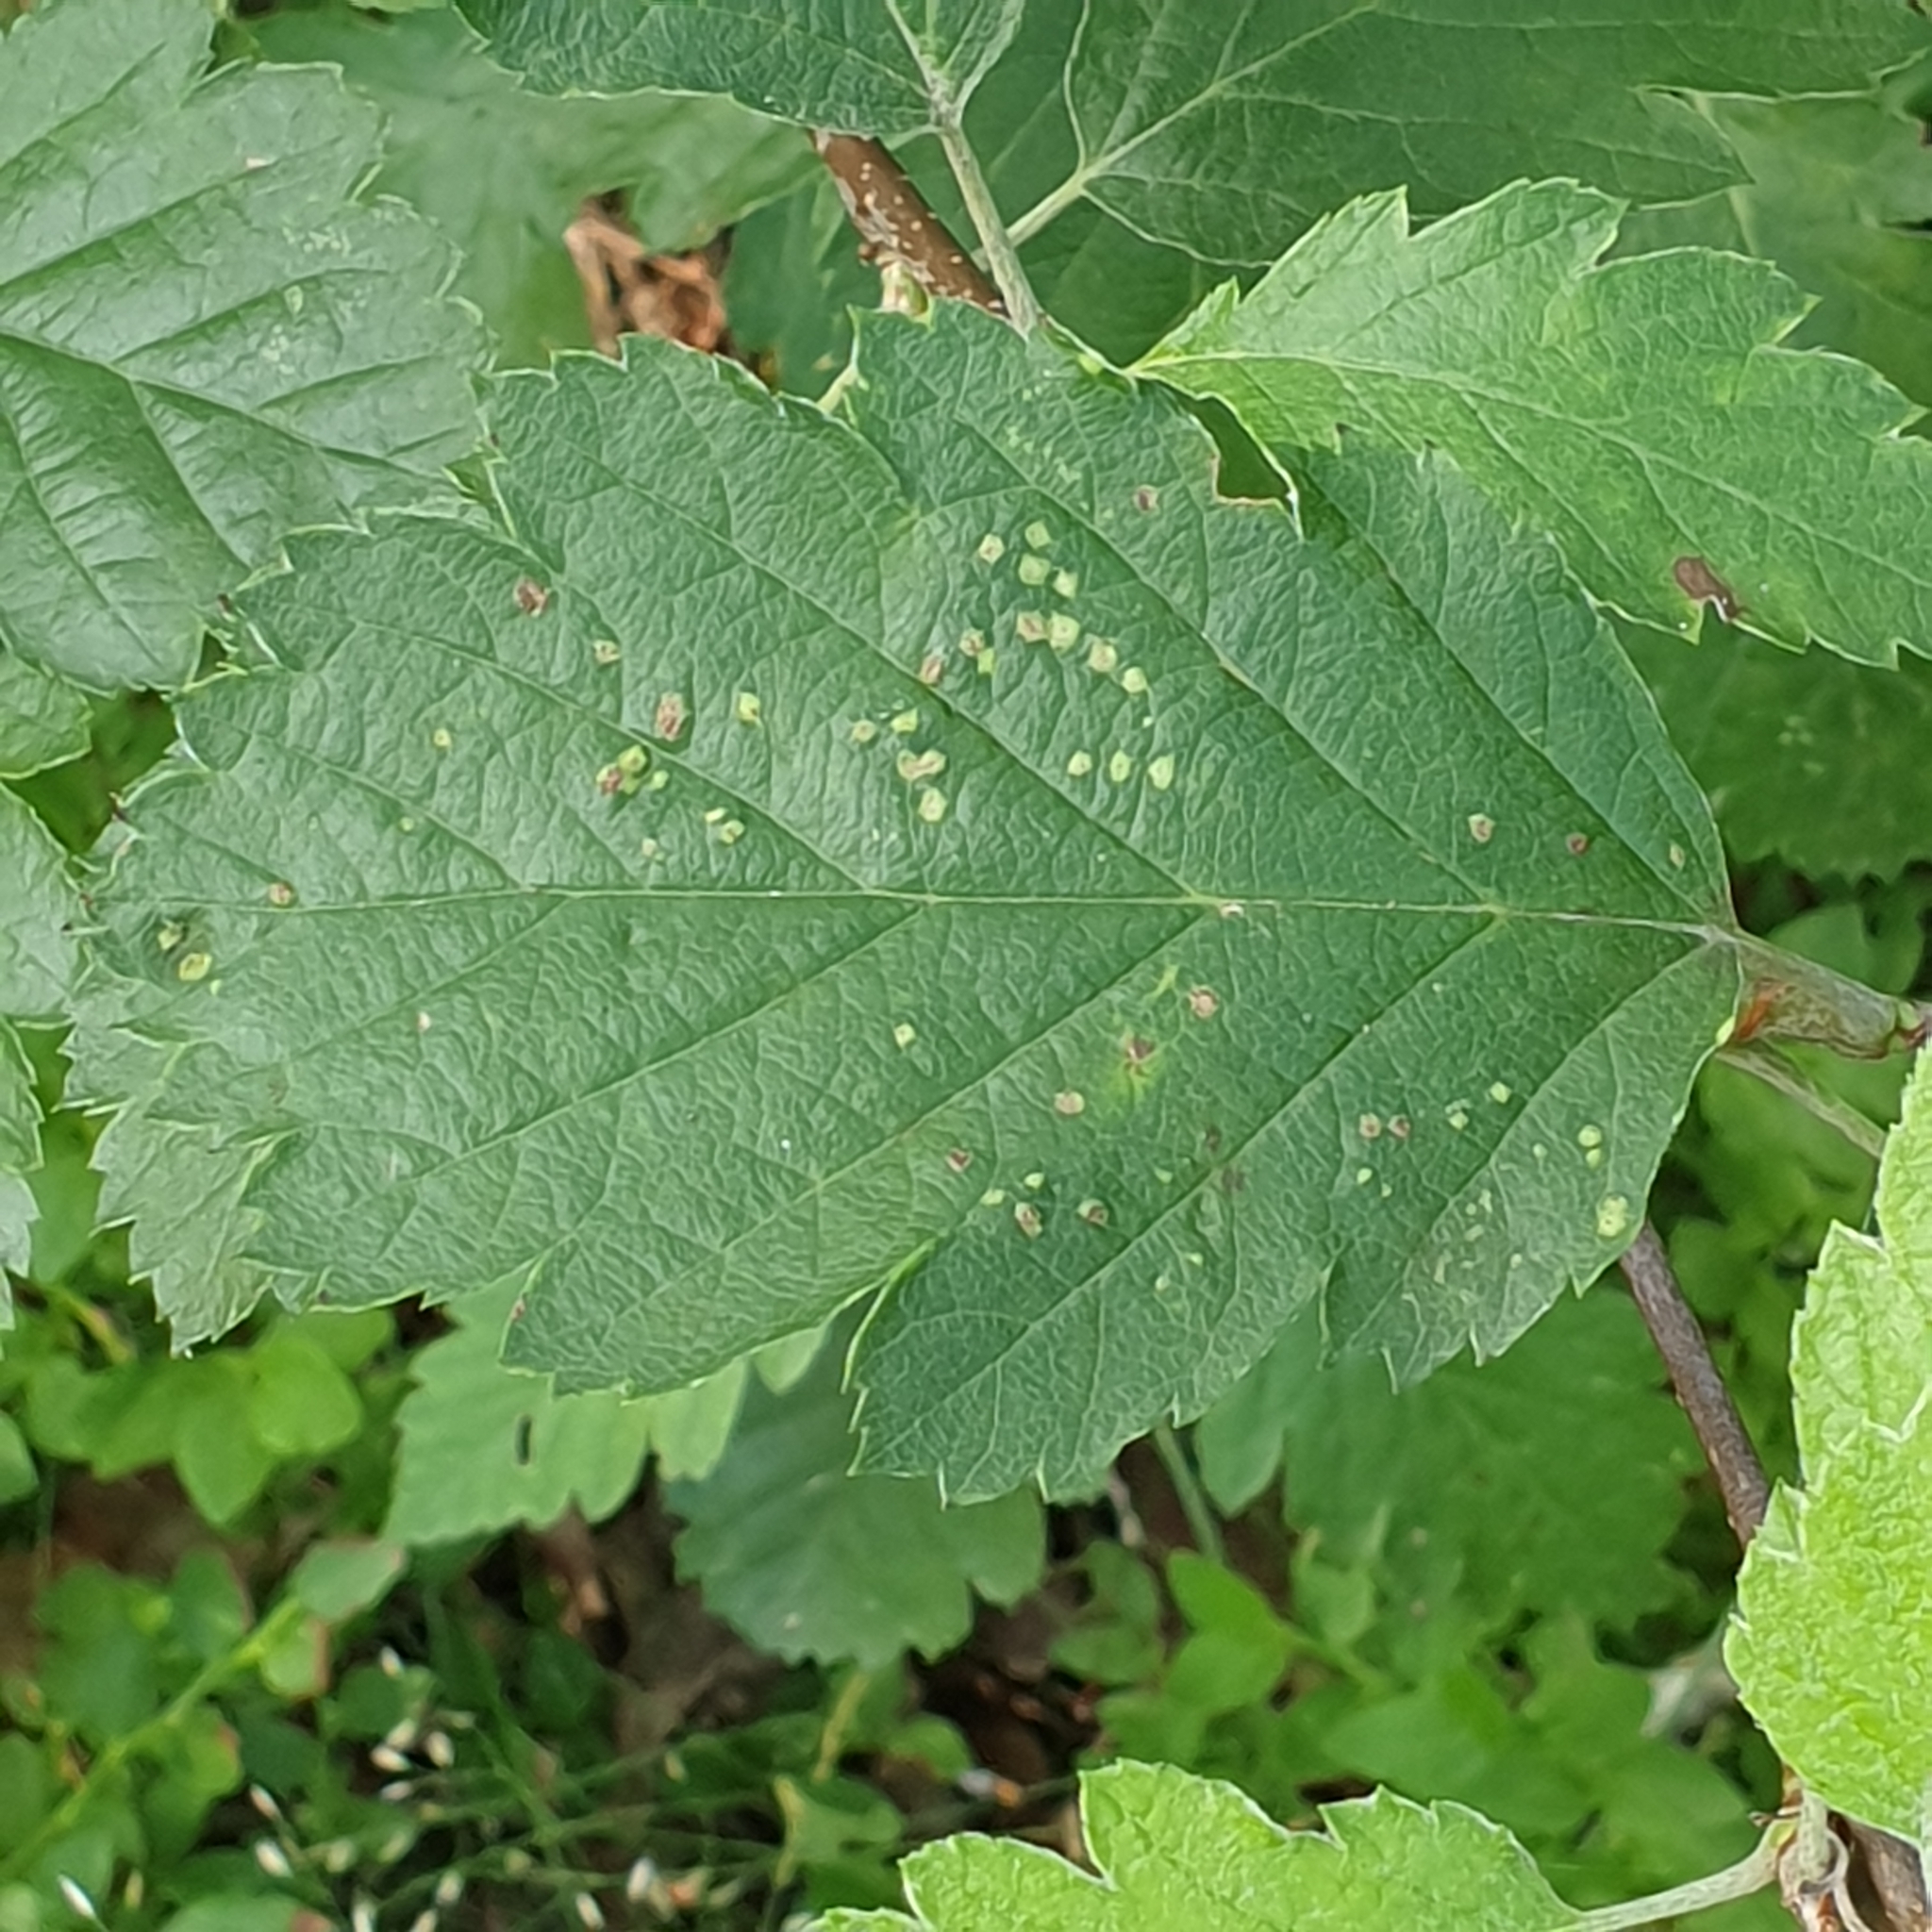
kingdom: Plantae
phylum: Tracheophyta
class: Magnoliopsida
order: Rosales
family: Rosaceae
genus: Scandosorbus
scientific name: Scandosorbus intermedia
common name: Swedish whitebeam
